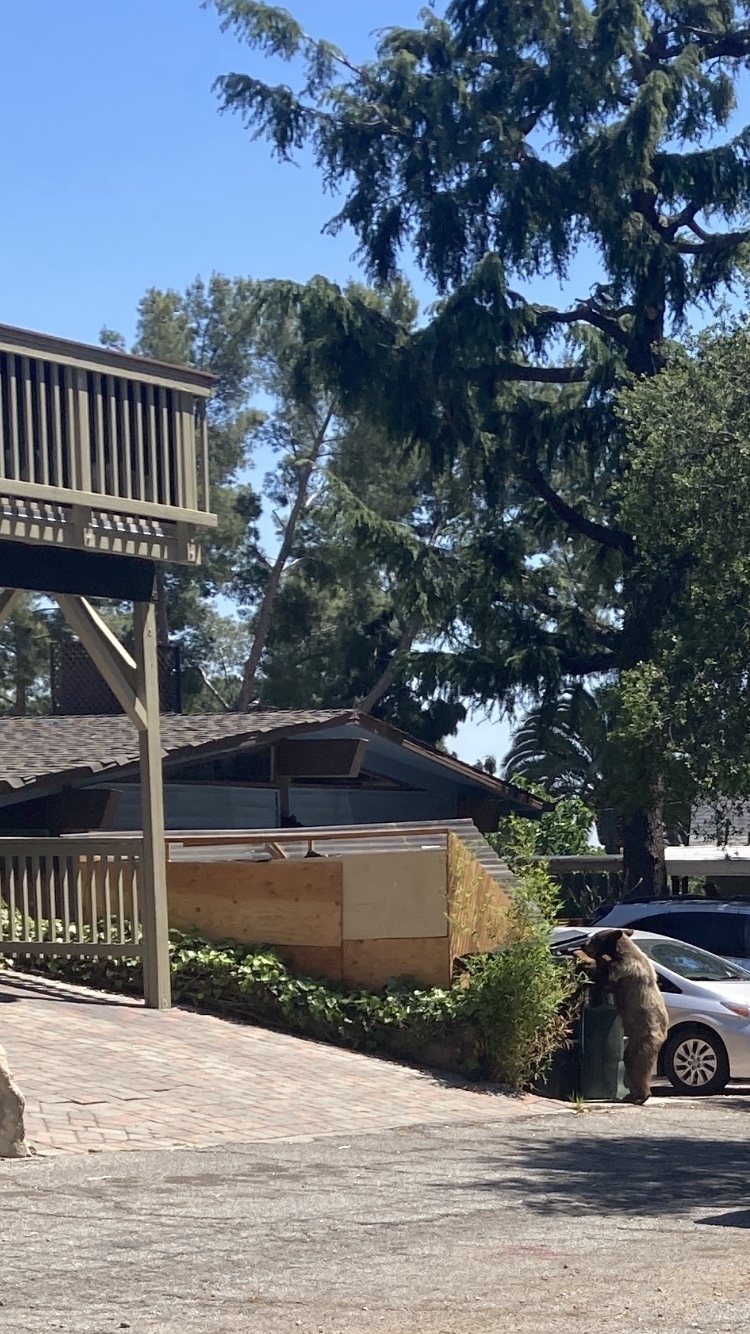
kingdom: Animalia
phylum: Chordata
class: Mammalia
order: Carnivora
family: Ursidae
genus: Ursus
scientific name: Ursus americanus
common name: American black bear
